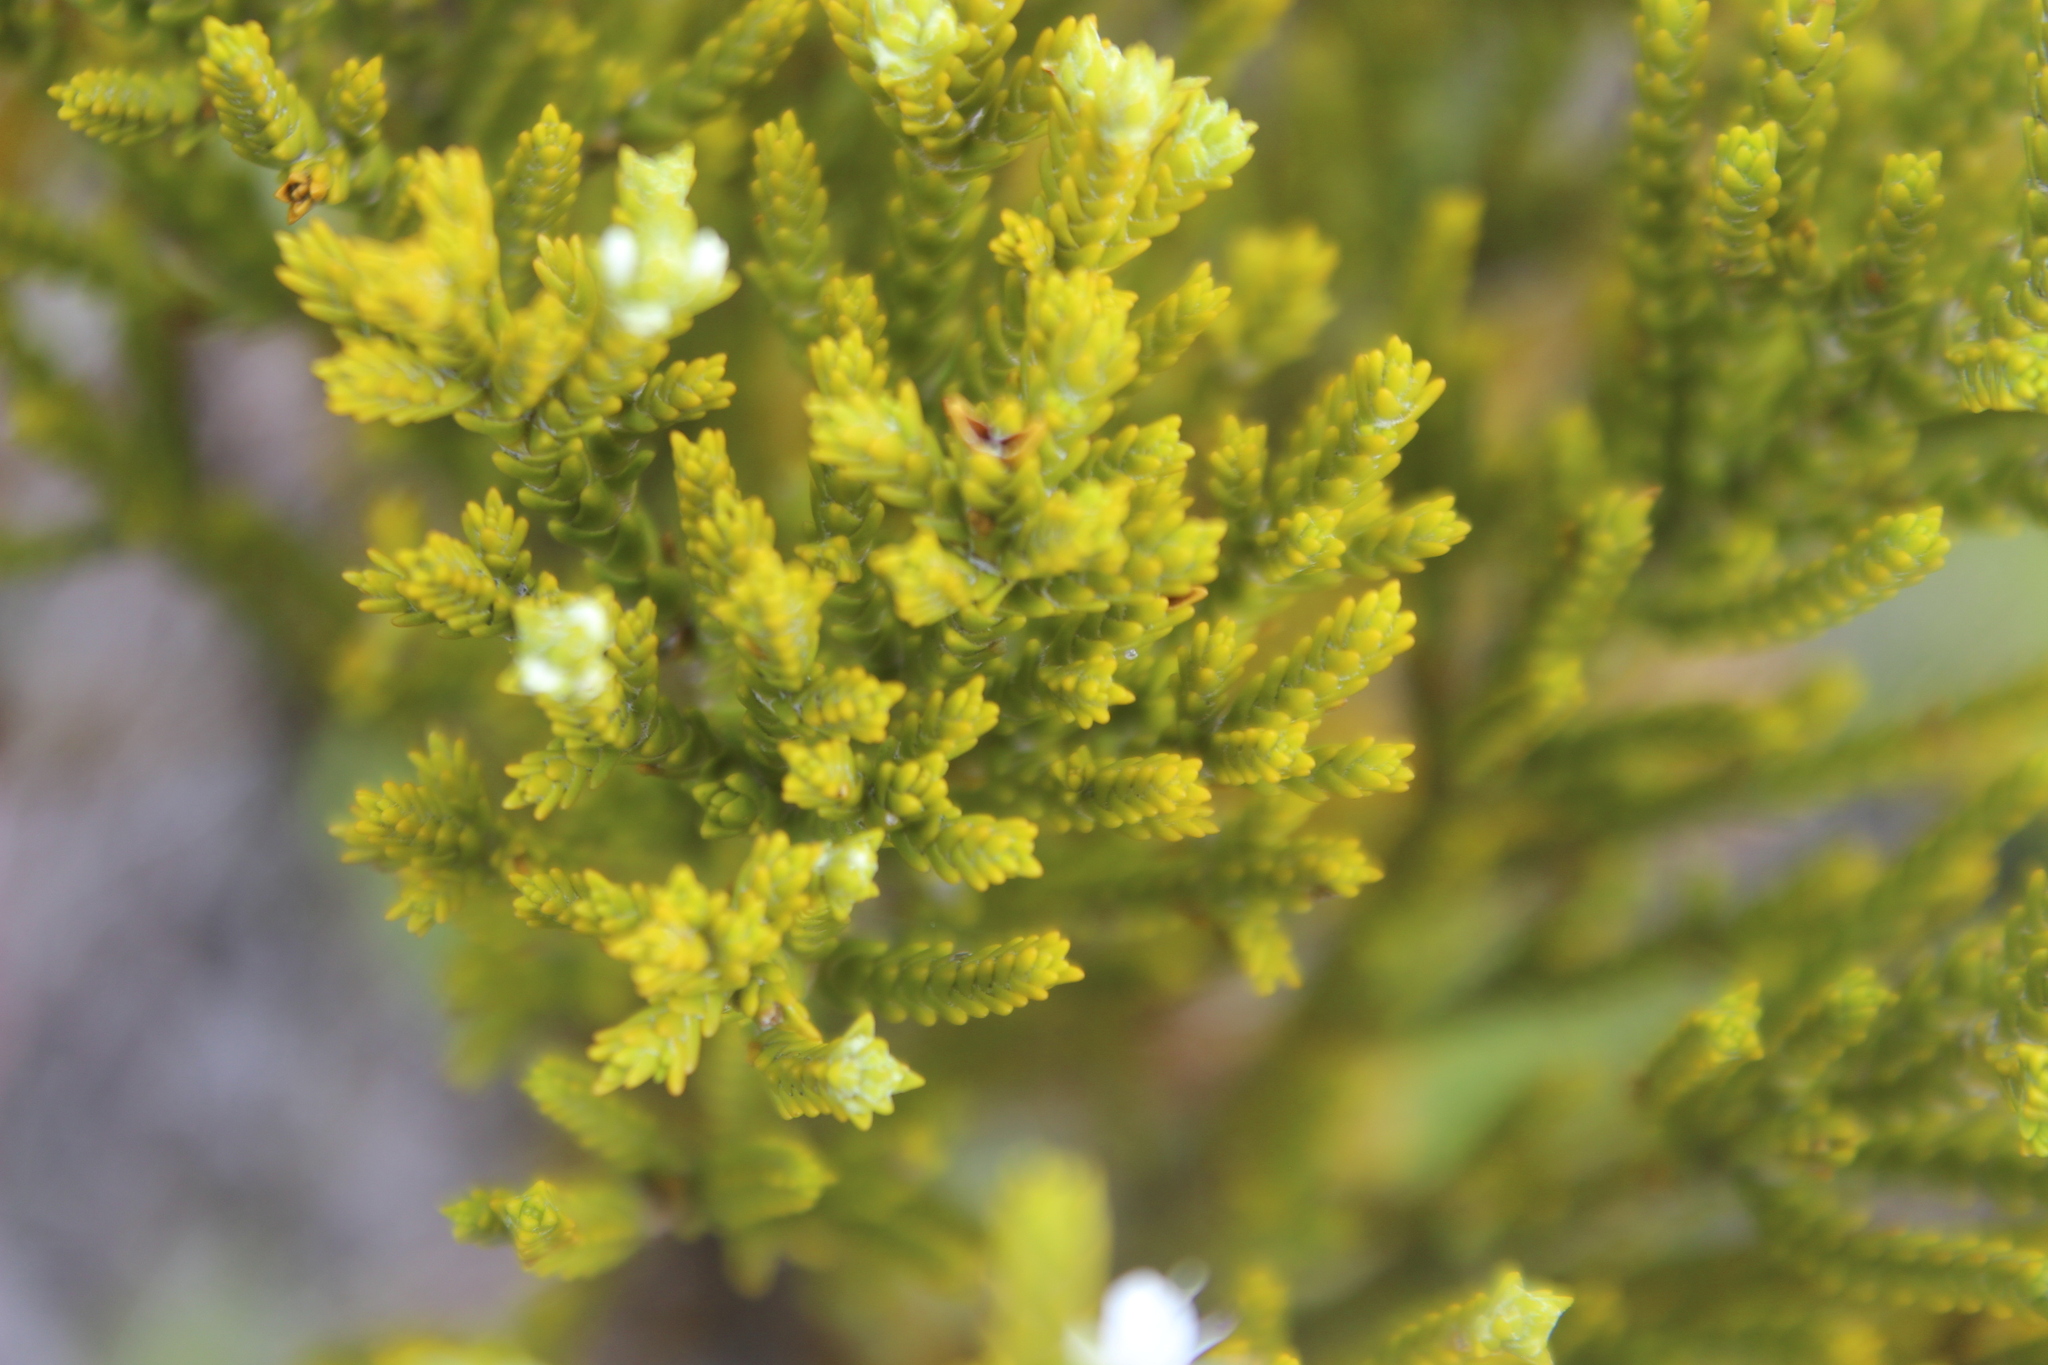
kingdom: Plantae
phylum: Tracheophyta
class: Magnoliopsida
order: Lamiales
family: Plantaginaceae
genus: Veronica
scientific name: Veronica tetragona
